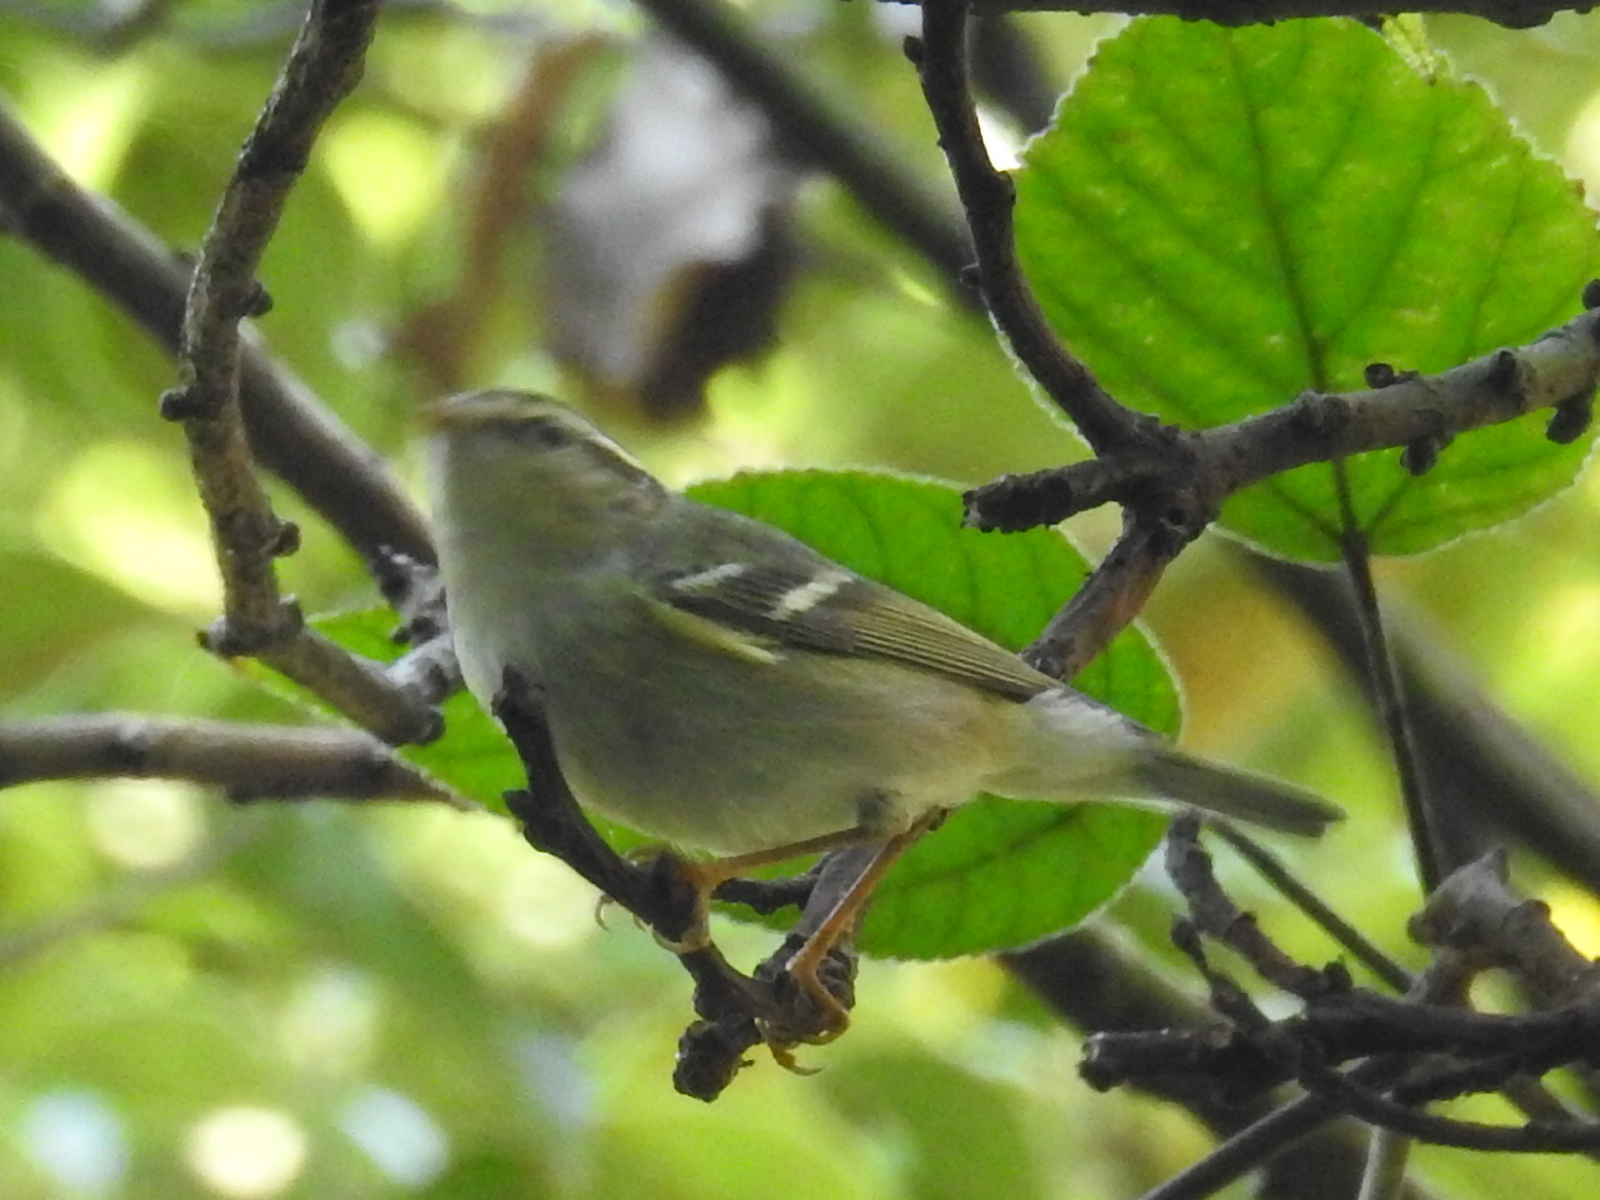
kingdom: Animalia
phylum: Chordata
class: Aves
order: Passeriformes
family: Phylloscopidae
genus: Phylloscopus
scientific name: Phylloscopus inornatus
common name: Yellow-browed warbler
